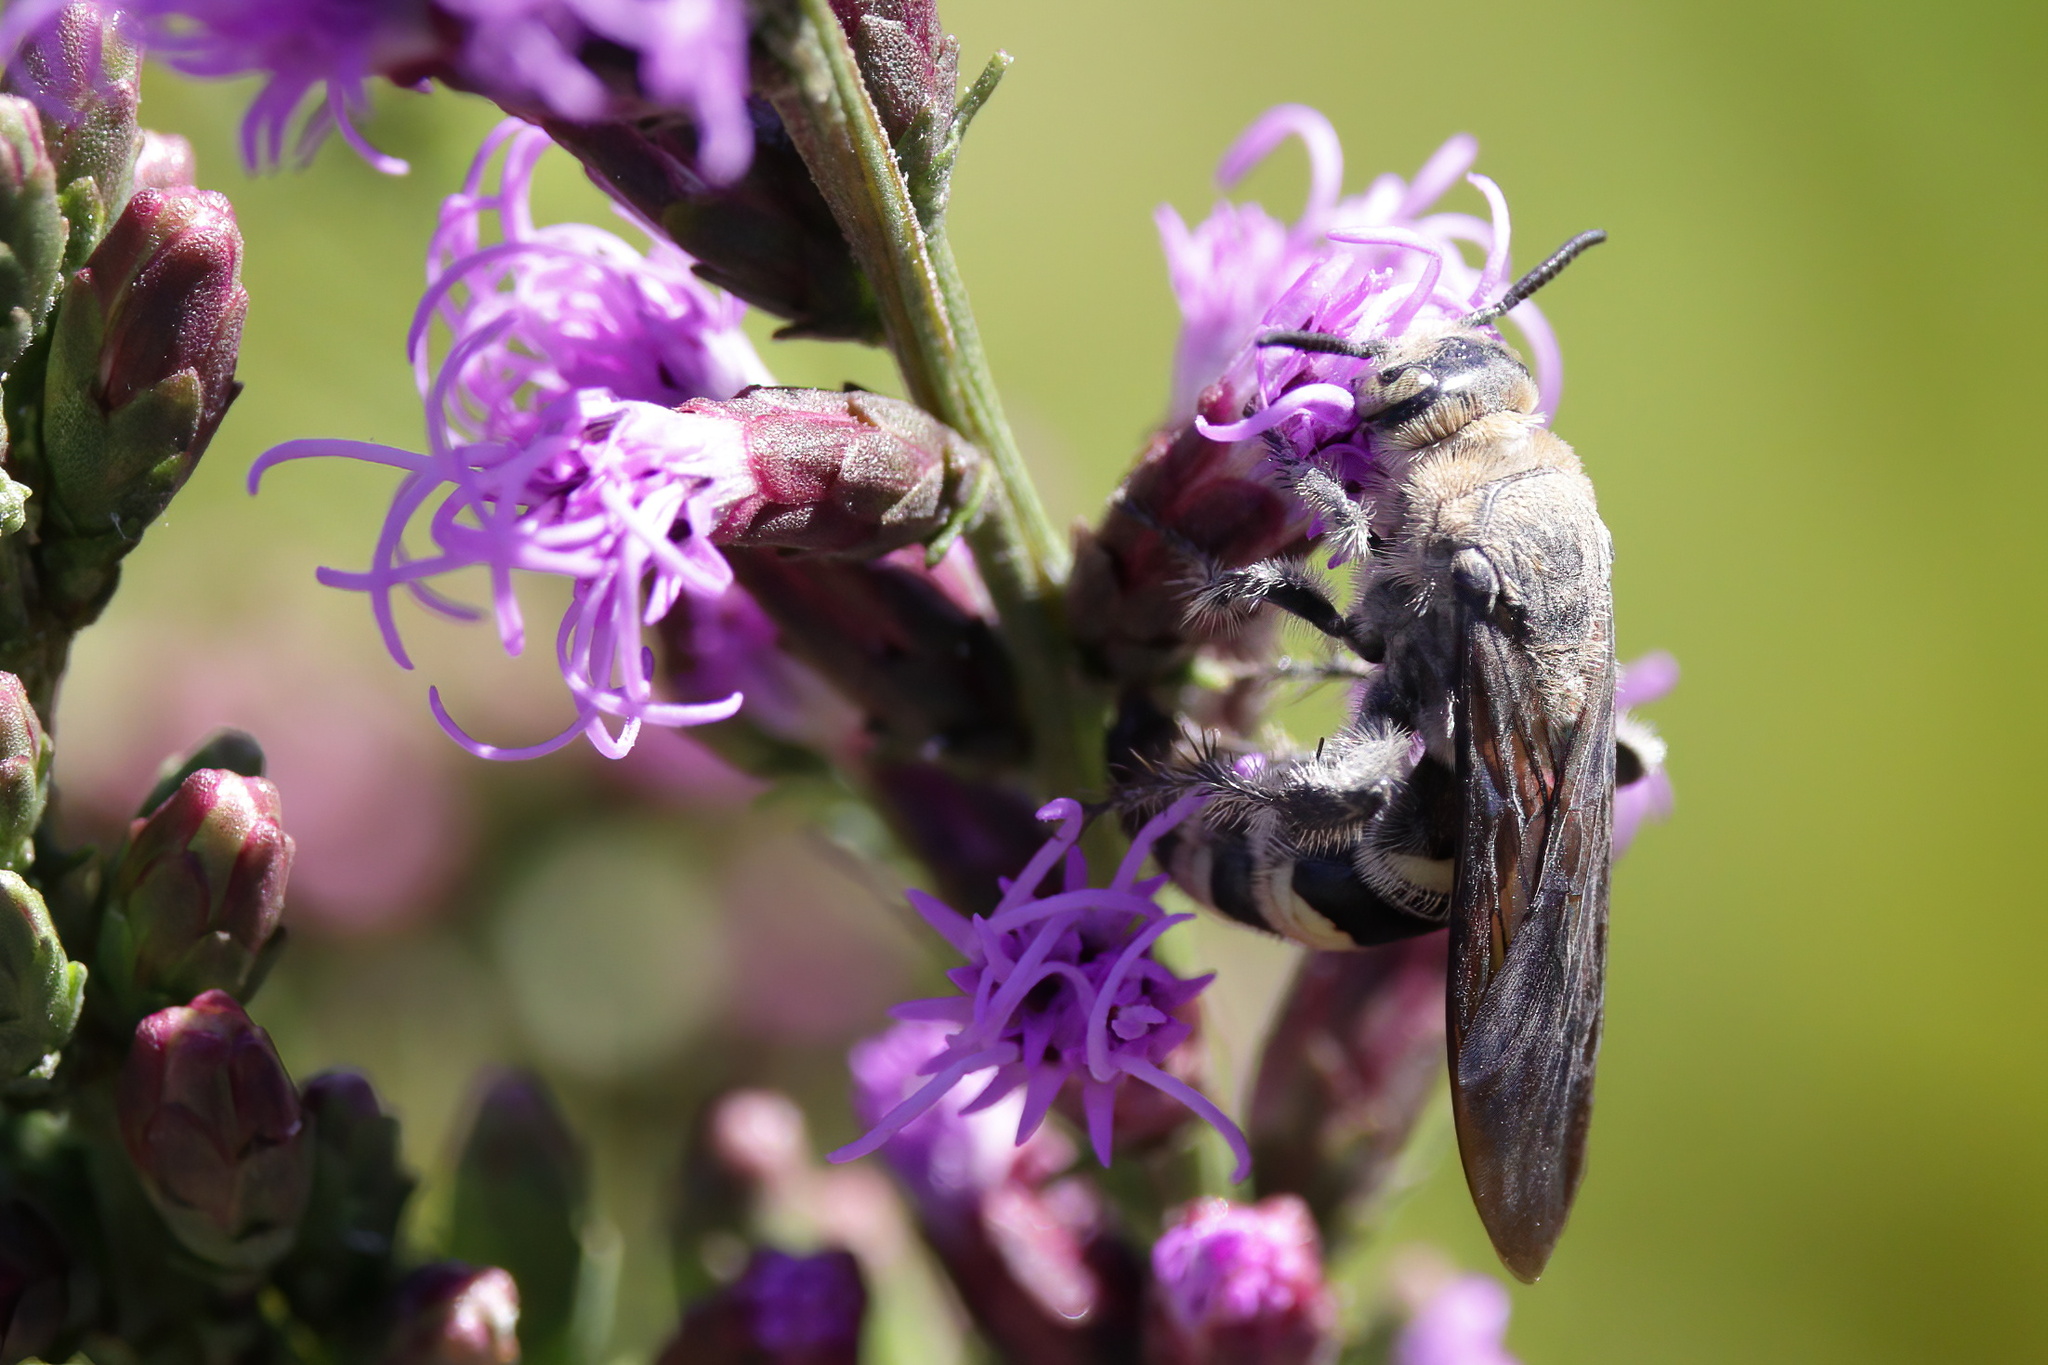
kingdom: Animalia
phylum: Arthropoda
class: Insecta
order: Hymenoptera
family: Scoliidae
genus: Dielis
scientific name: Dielis
